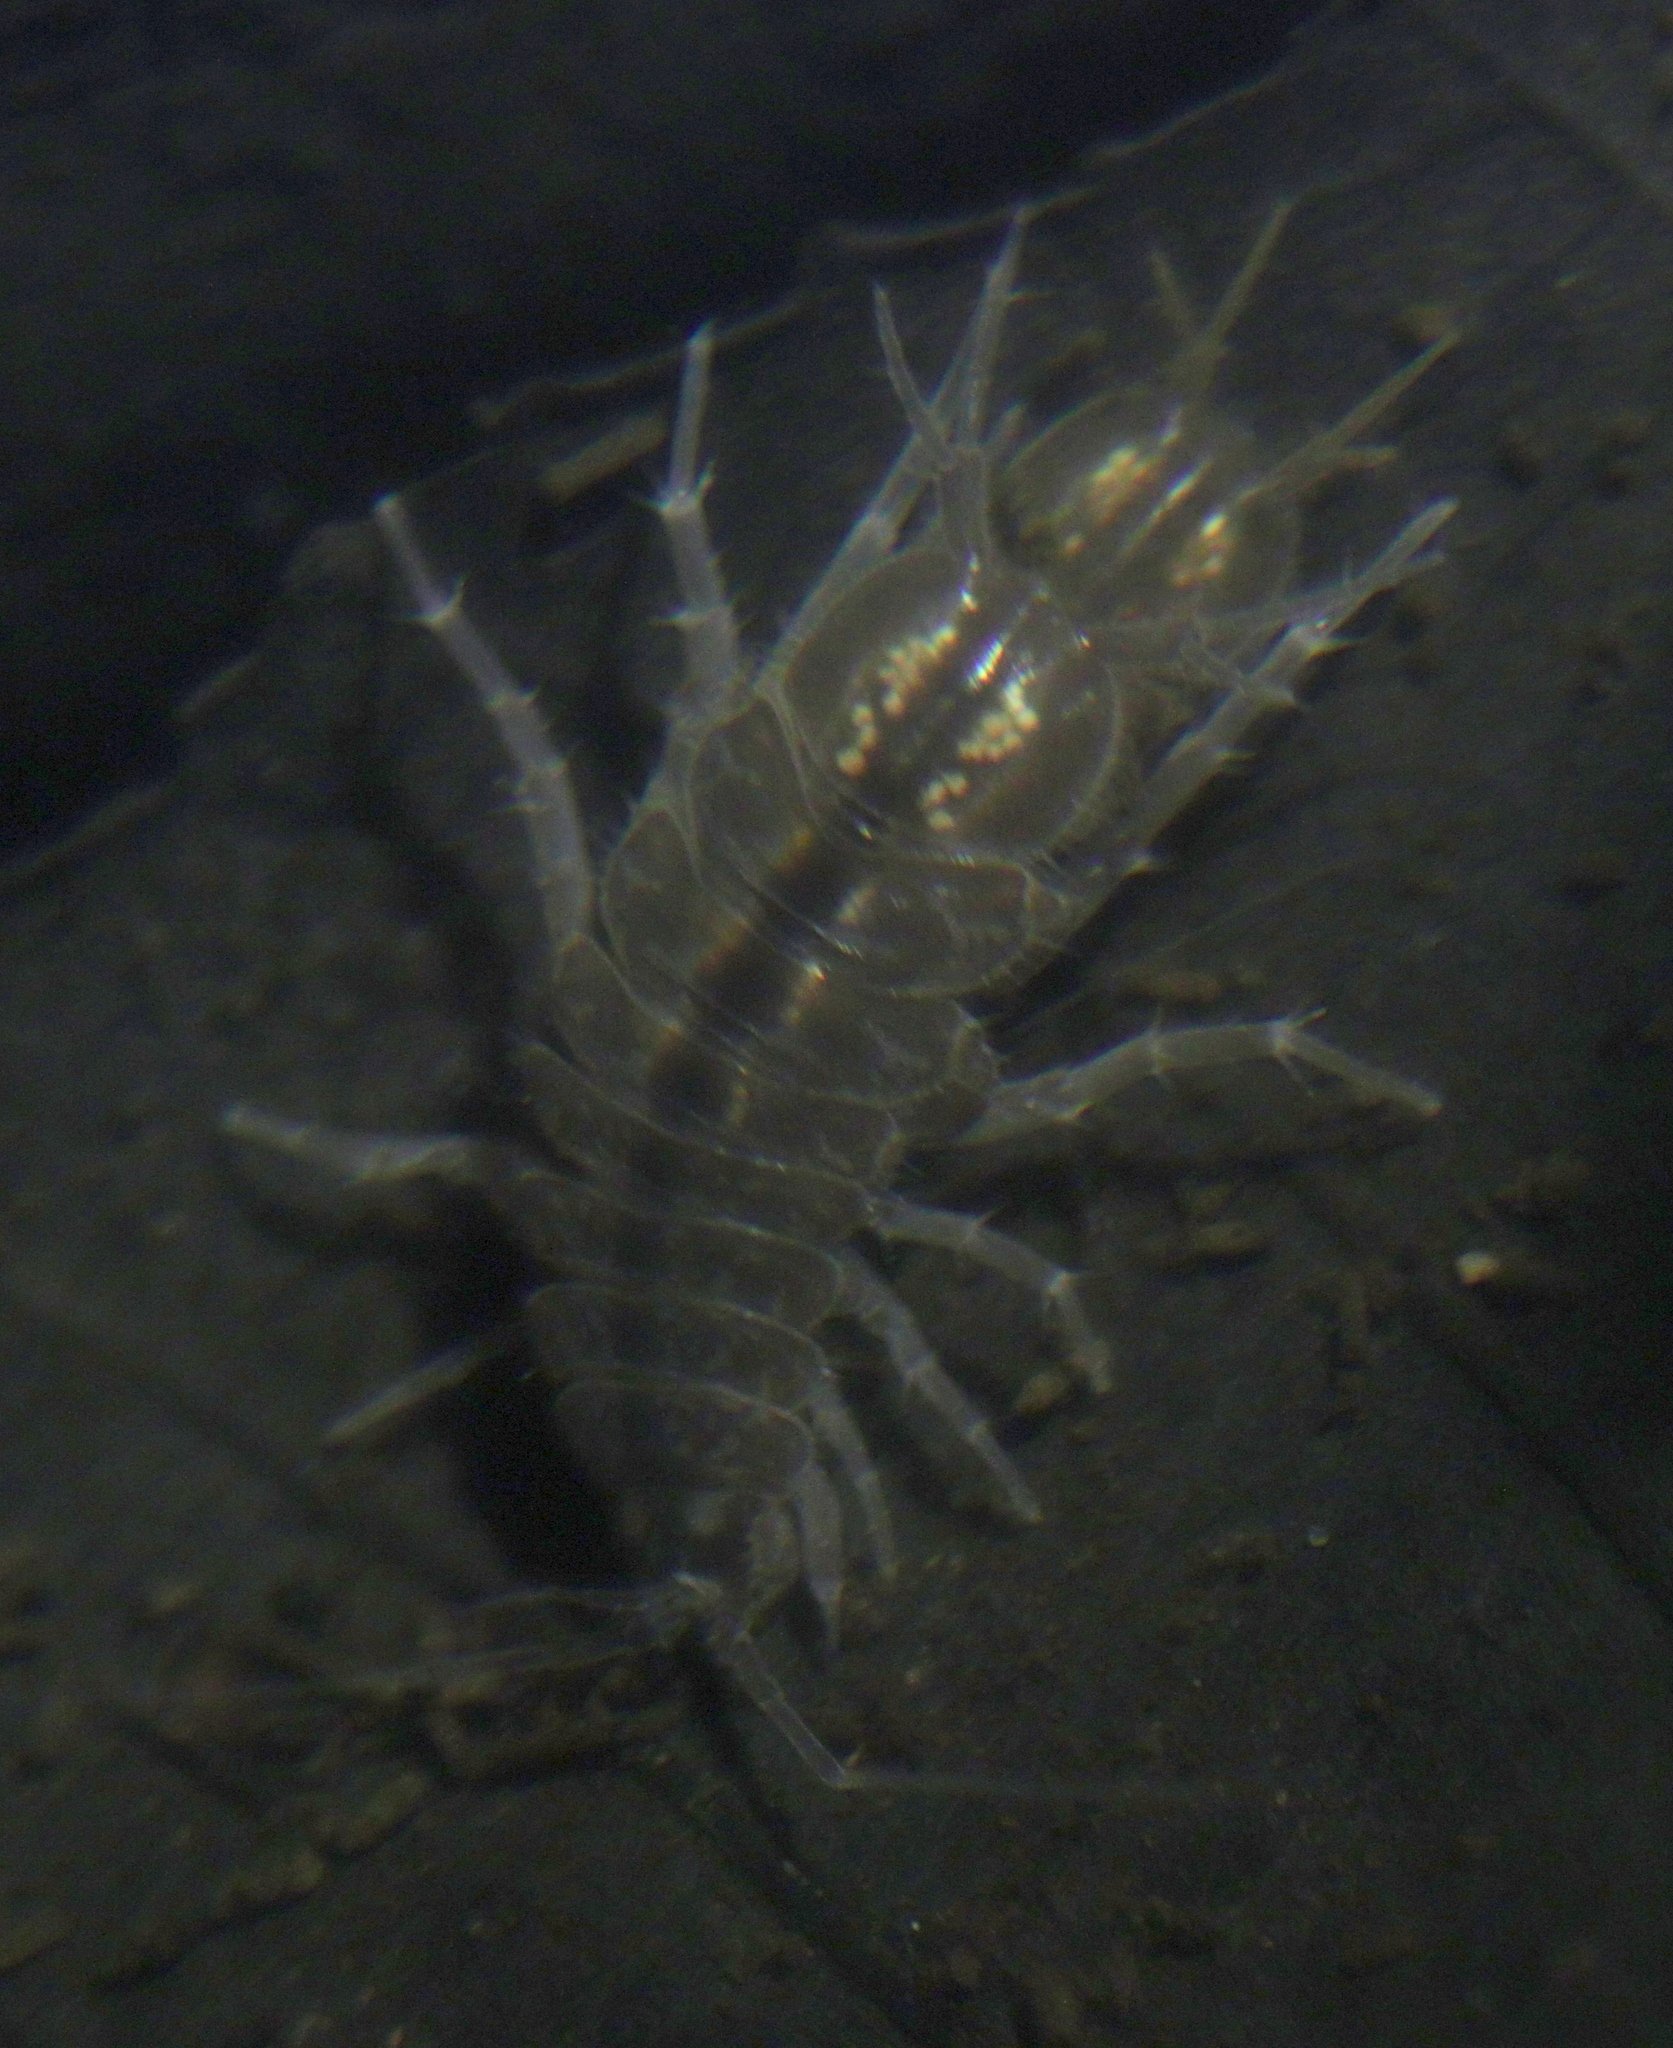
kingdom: Animalia
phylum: Arthropoda
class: Malacostraca
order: Isopoda
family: Asellidae
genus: Asellus
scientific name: Asellus aquaticus
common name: Water hog lice/slaters
